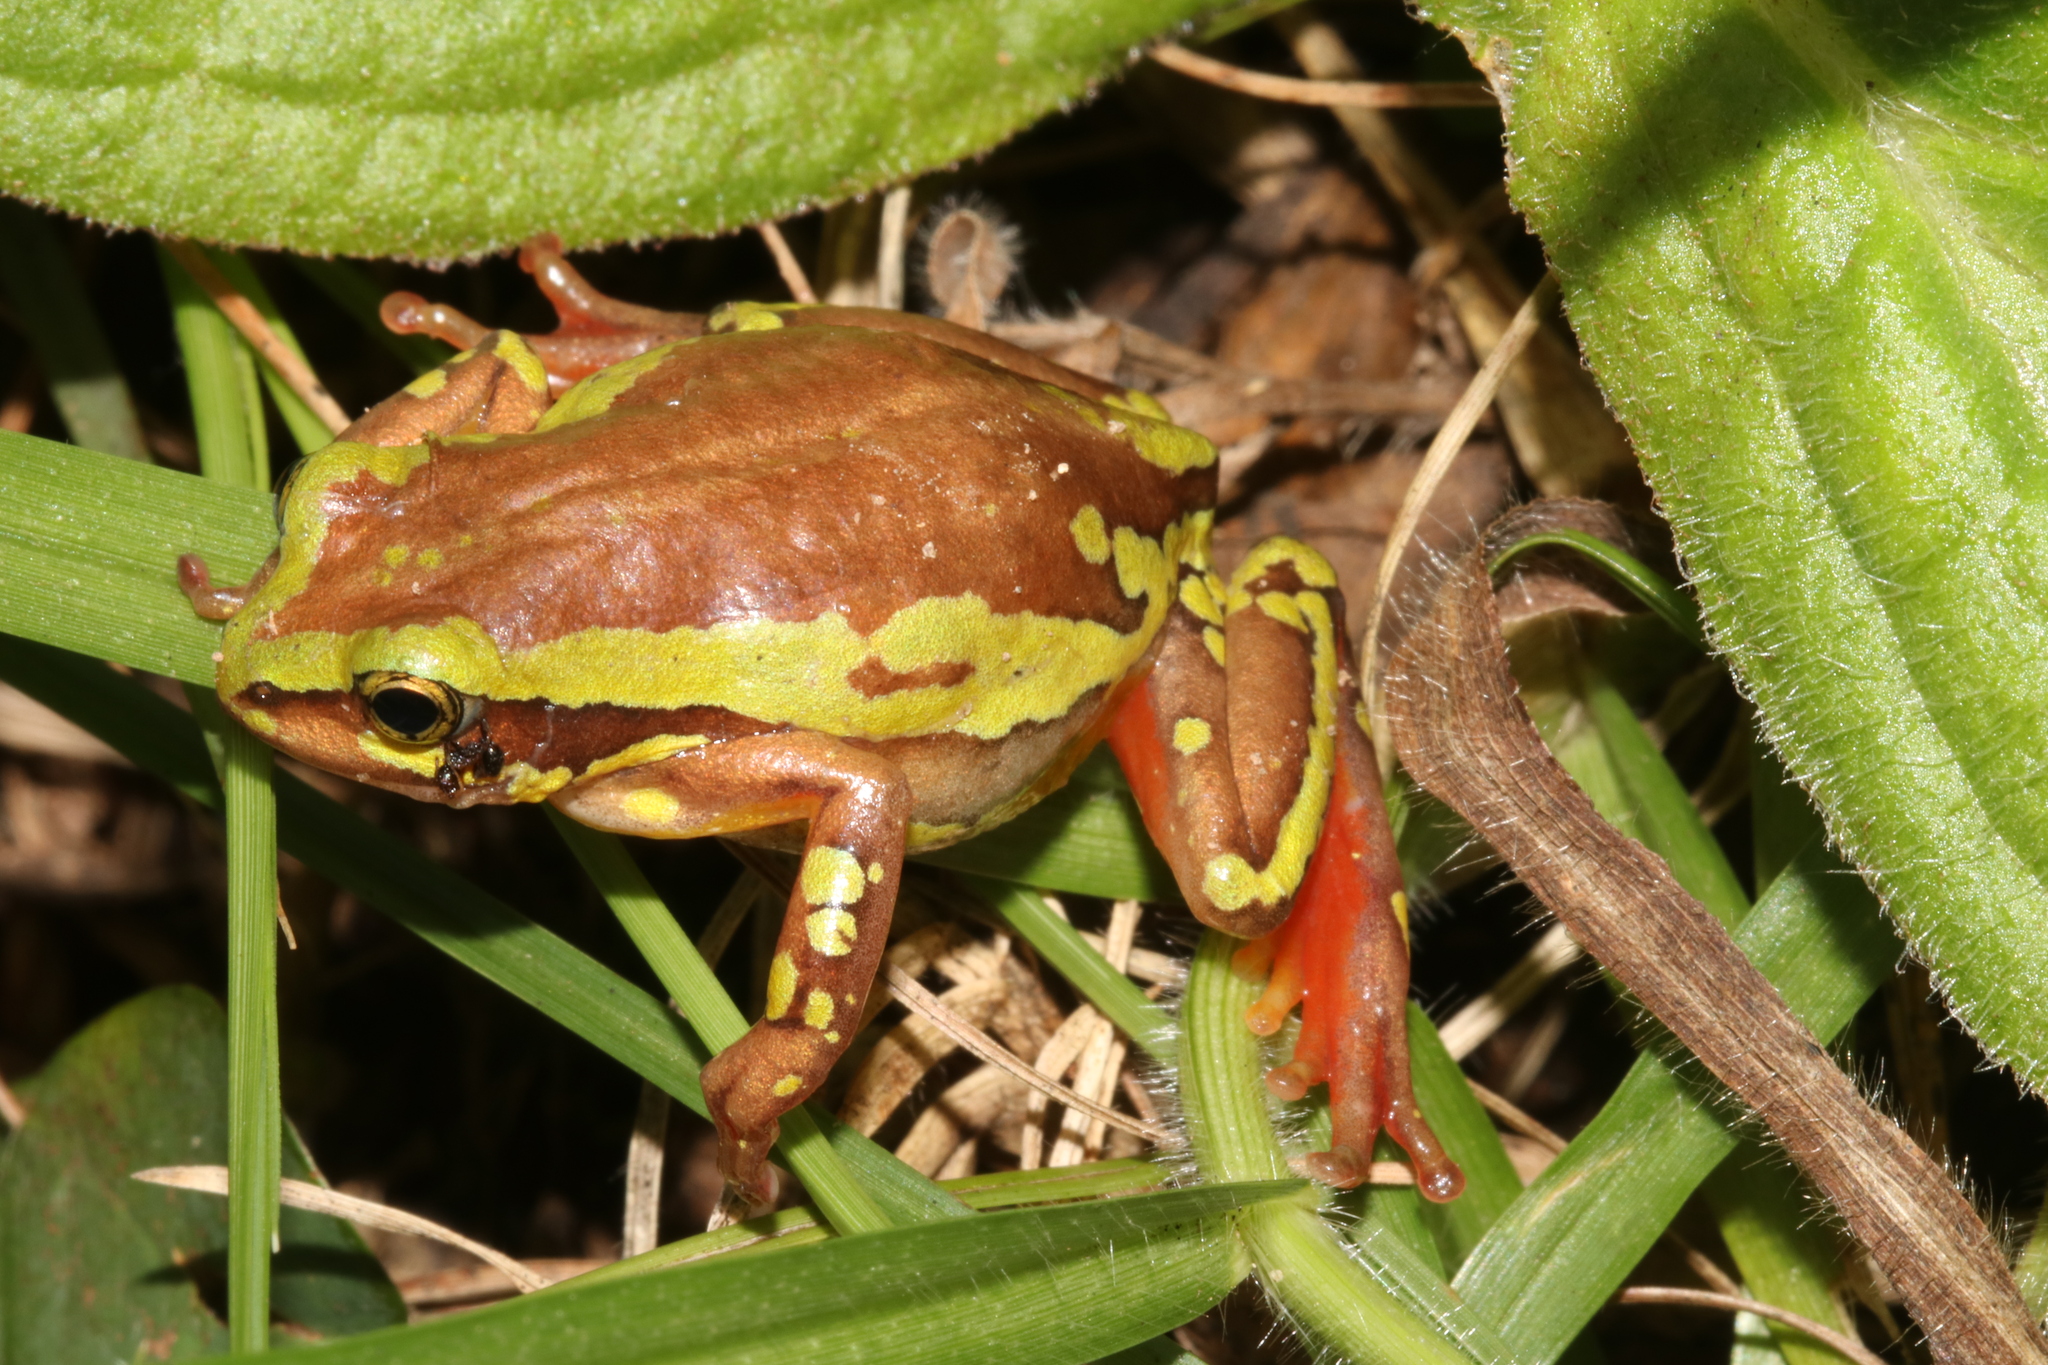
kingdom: Animalia
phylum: Chordata
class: Amphibia
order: Anura
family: Hyperoliidae
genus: Hyperolius
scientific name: Hyperolius pictus
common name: Variable reed frog
